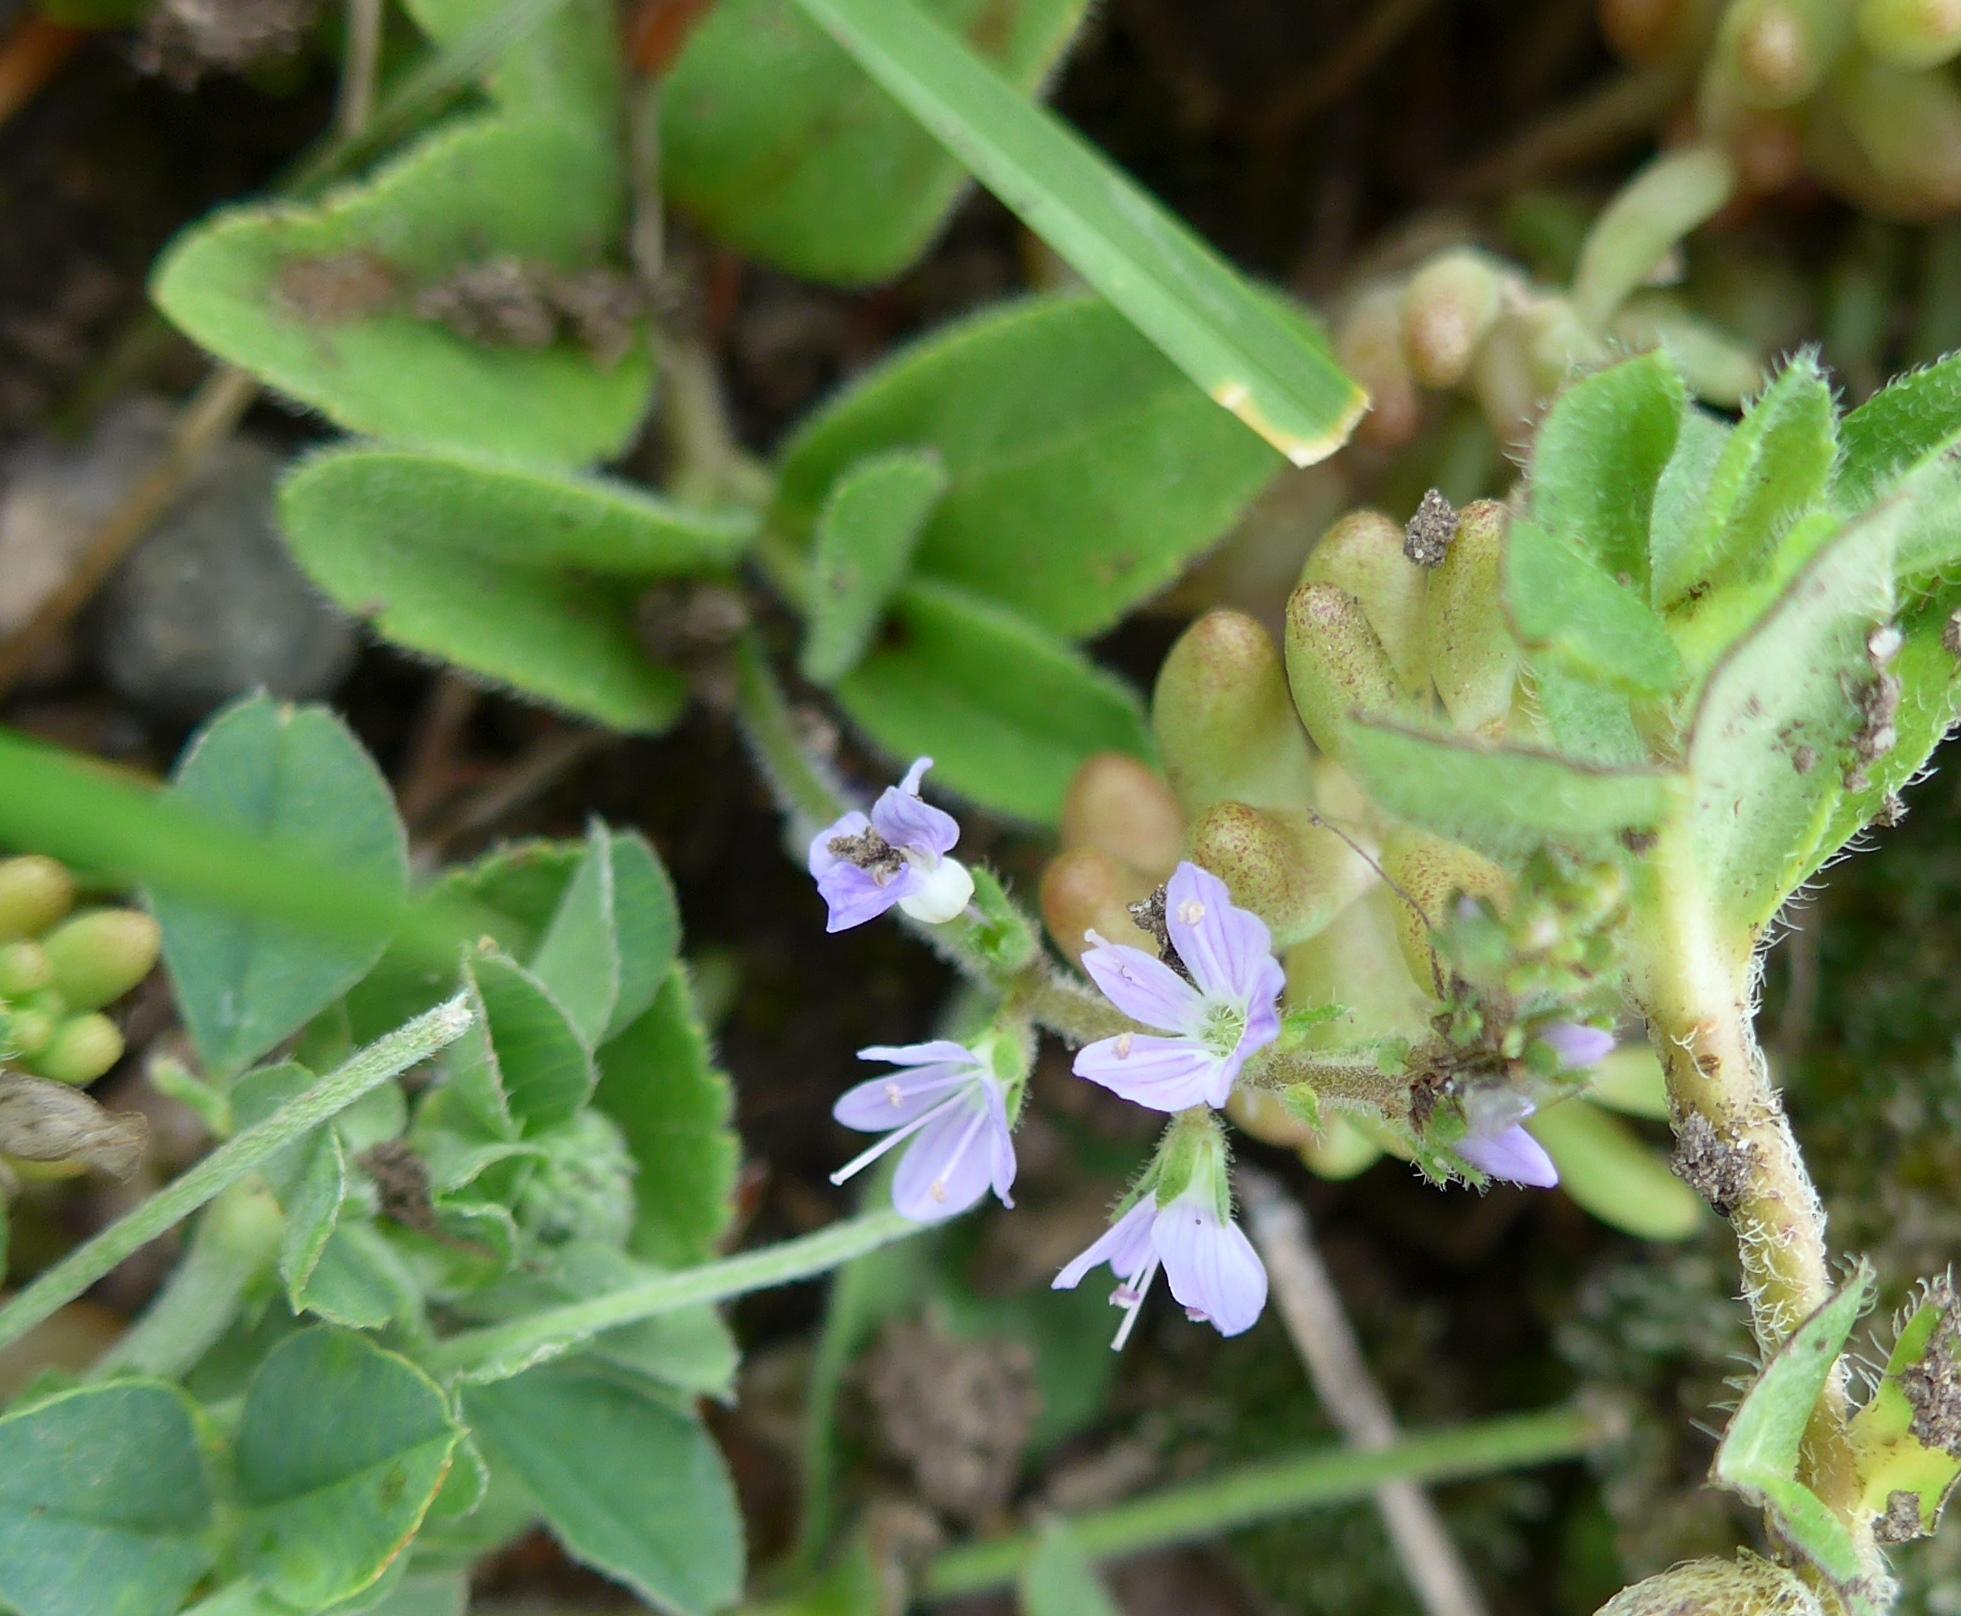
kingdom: Plantae
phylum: Tracheophyta
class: Magnoliopsida
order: Lamiales
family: Plantaginaceae
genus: Veronica
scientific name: Veronica officinalis
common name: Common speedwell
